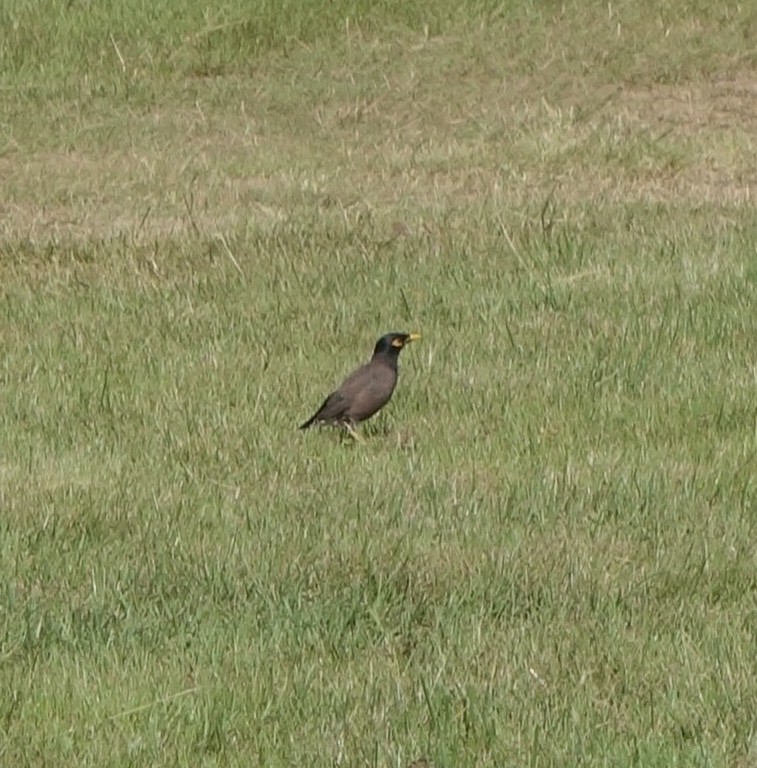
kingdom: Animalia
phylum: Chordata
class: Aves
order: Passeriformes
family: Sturnidae
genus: Acridotheres
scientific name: Acridotheres tristis
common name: Common myna
